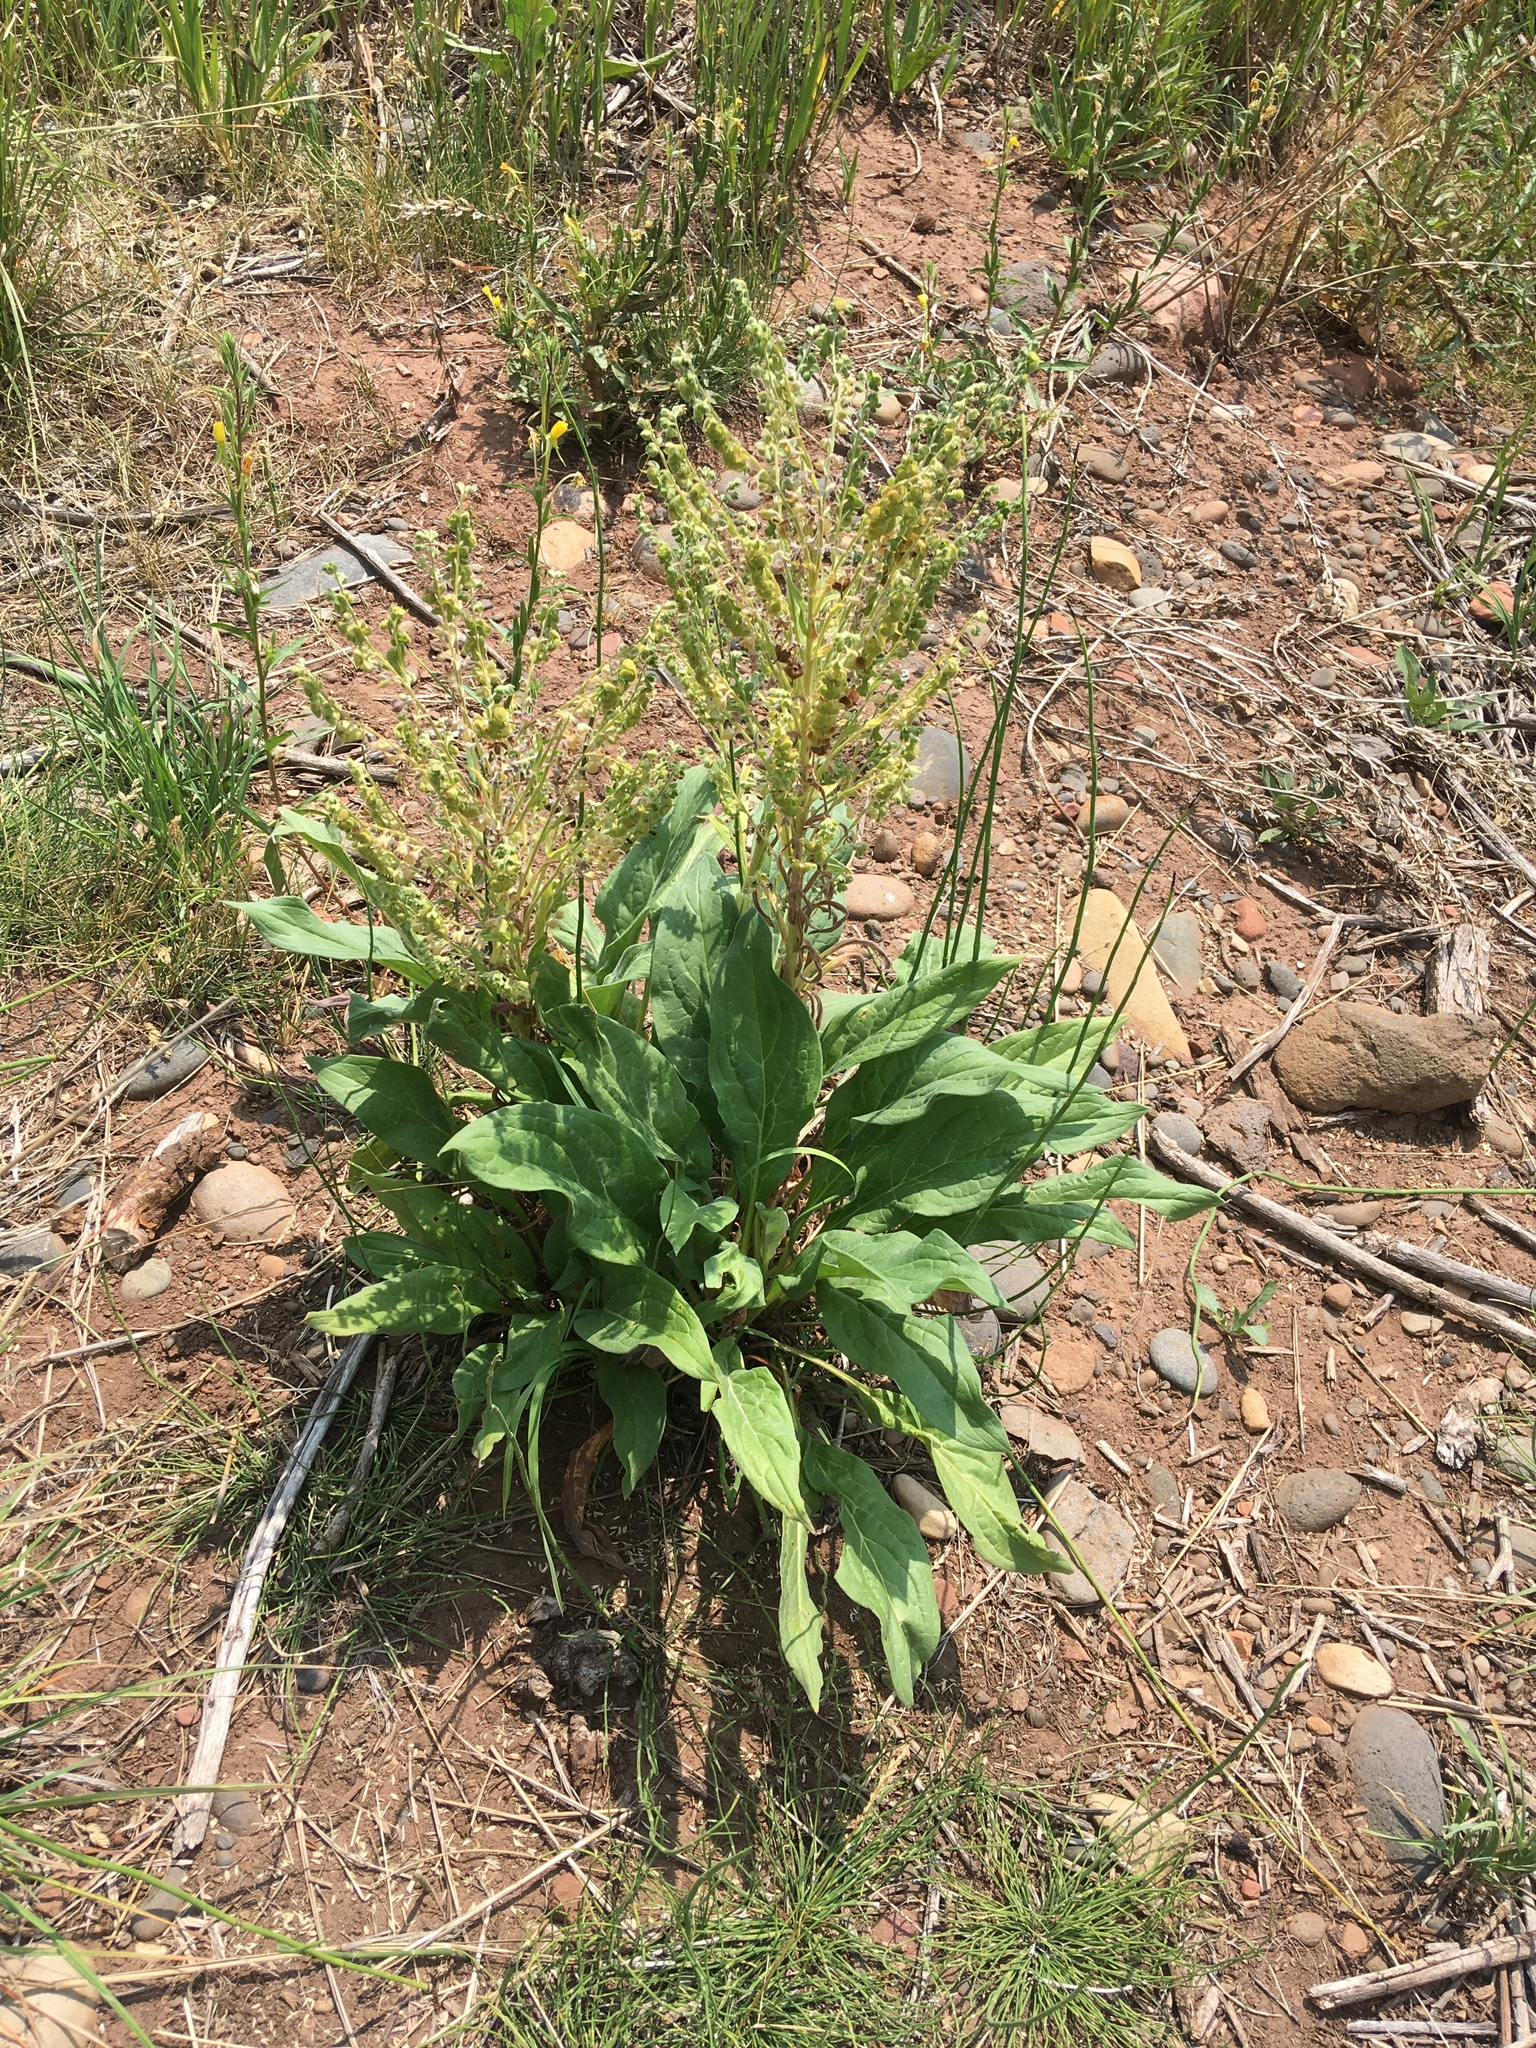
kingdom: Plantae
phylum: Tracheophyta
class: Magnoliopsida
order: Boraginales
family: Boraginaceae
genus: Cynoglossum
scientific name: Cynoglossum officinale
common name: Hound's-tongue
